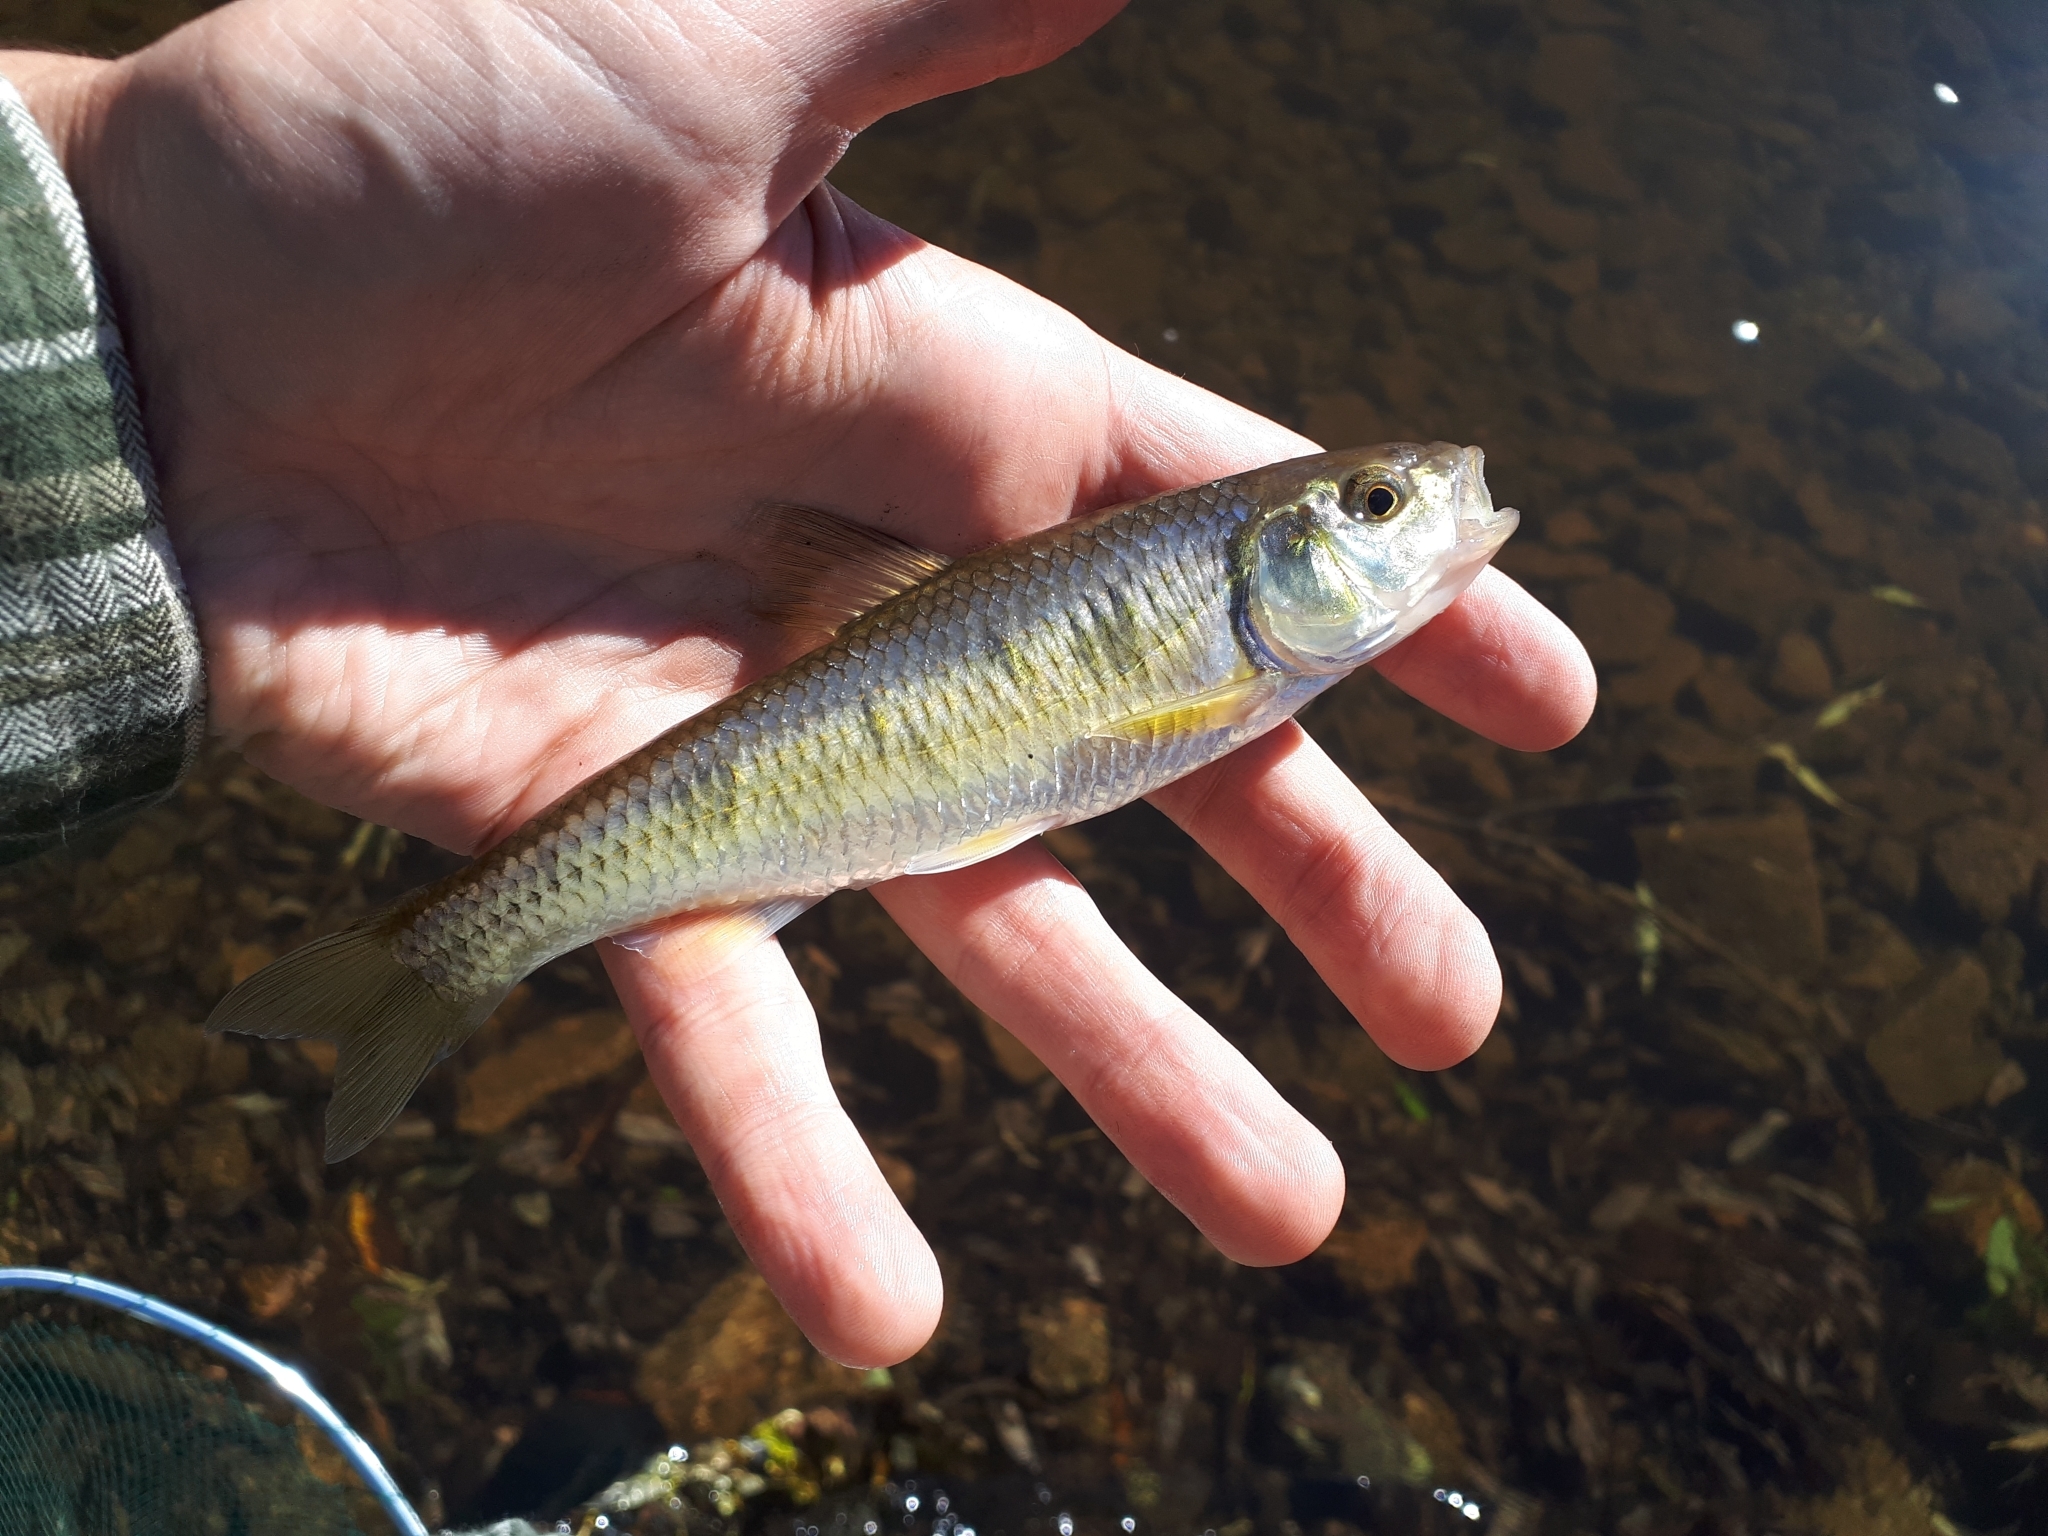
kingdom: Animalia
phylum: Chordata
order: Cypriniformes
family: Cyprinidae
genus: Luxilus
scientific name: Luxilus chrysocephalus
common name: Striped shiner
